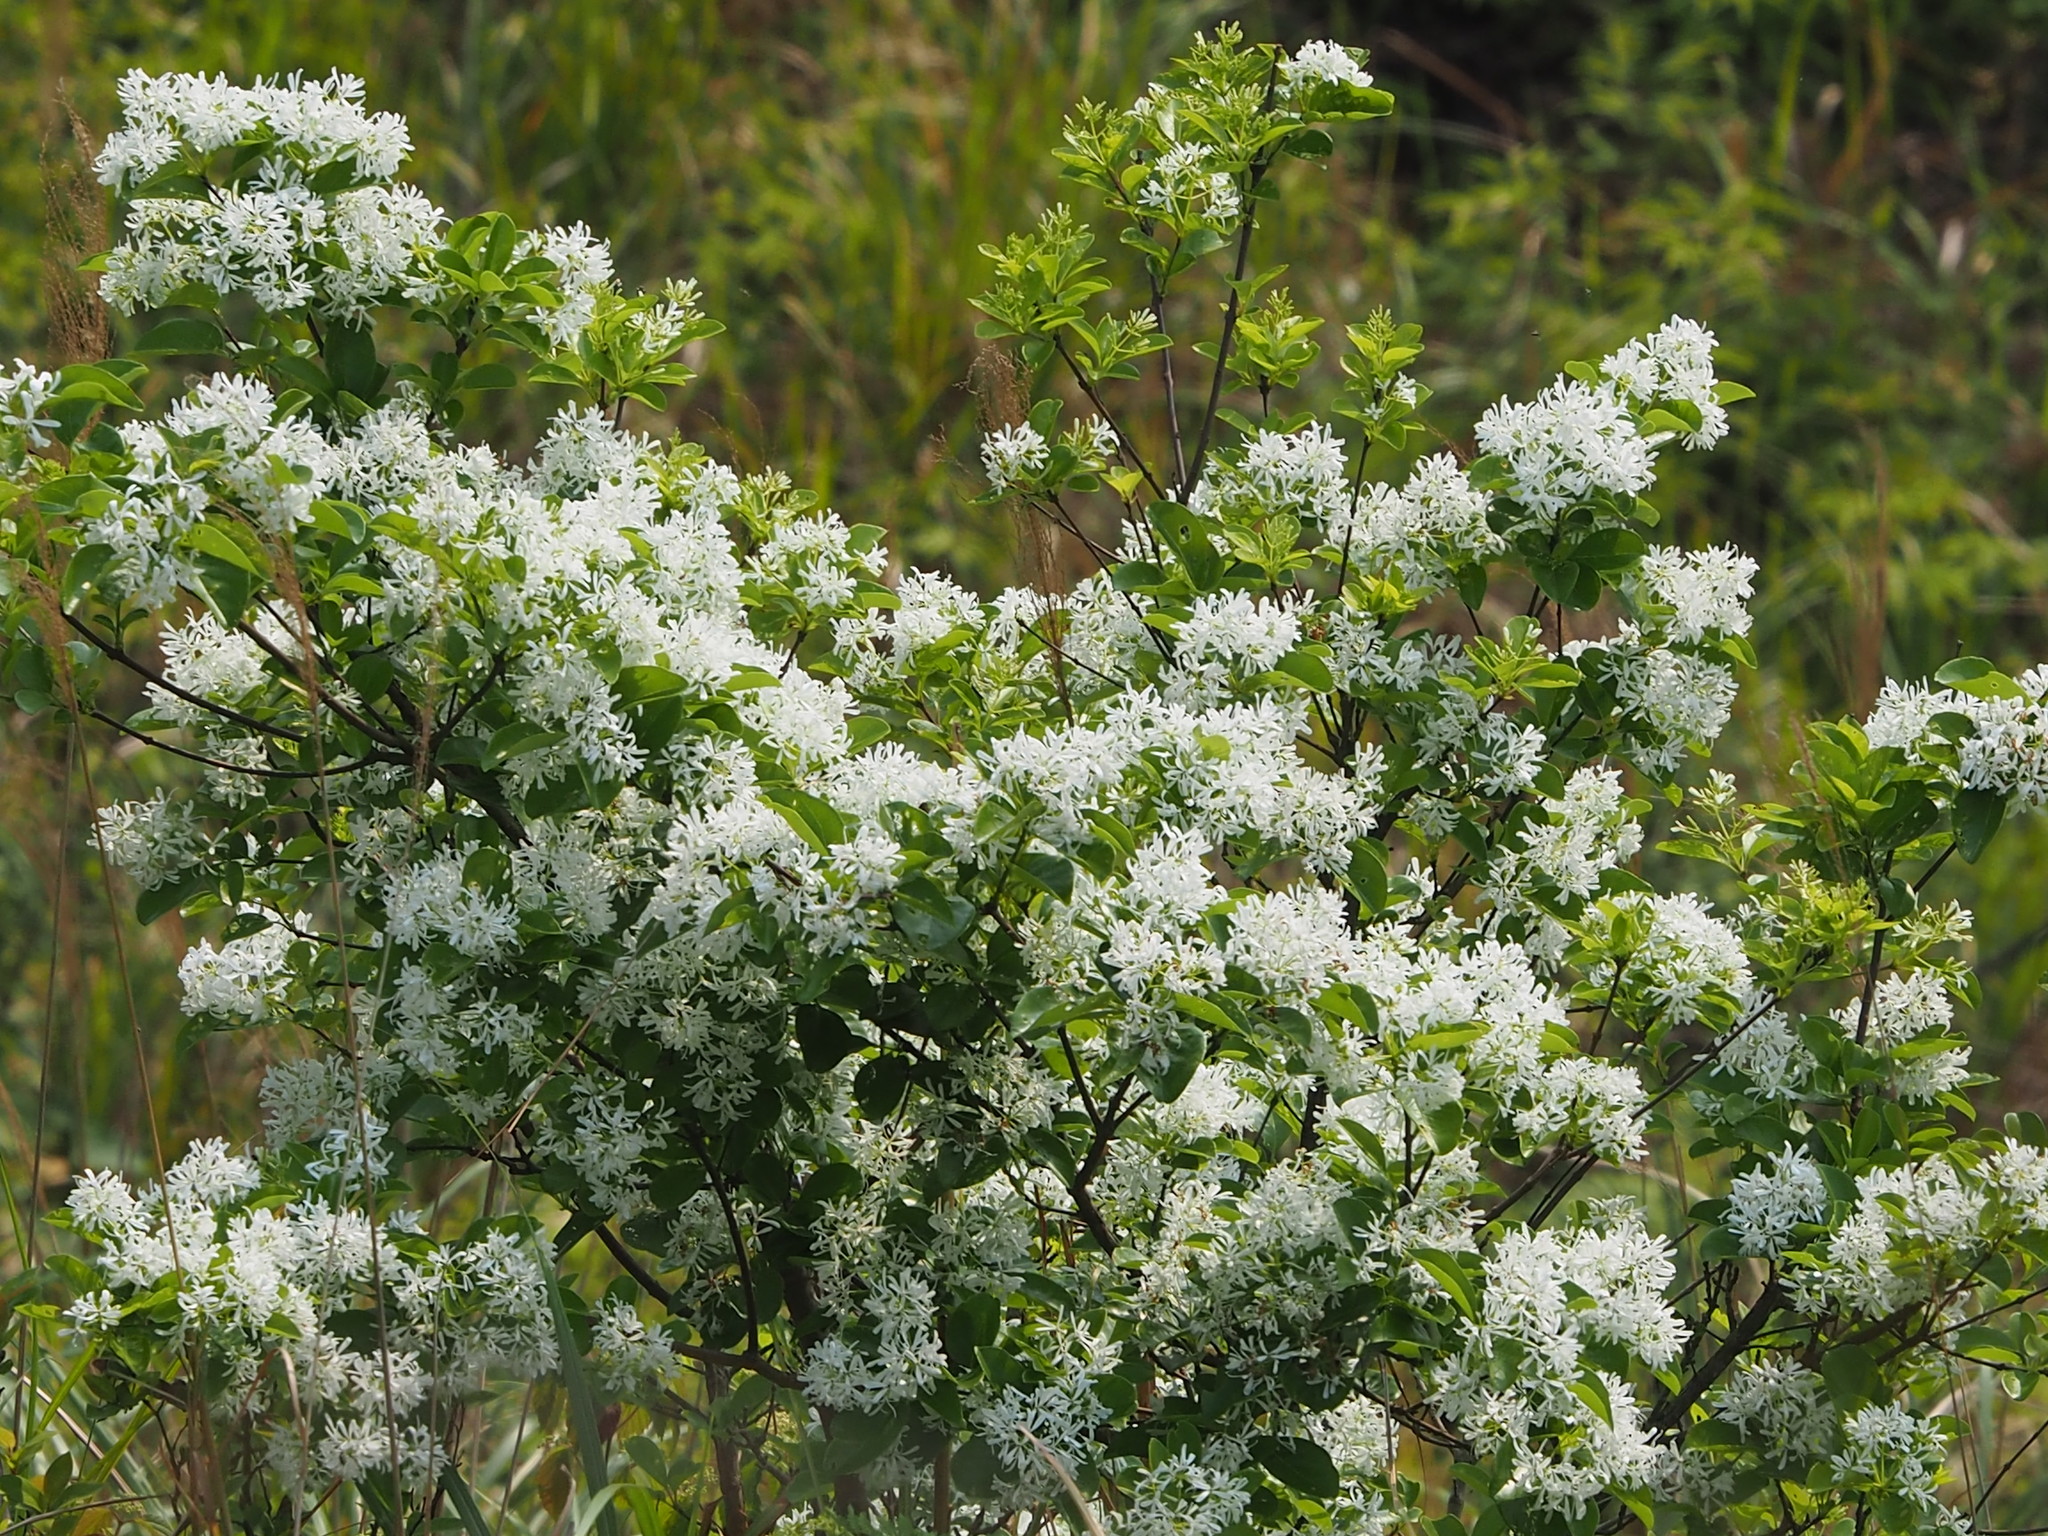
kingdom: Plantae
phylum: Tracheophyta
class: Magnoliopsida
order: Lamiales
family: Oleaceae
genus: Chionanthus
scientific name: Chionanthus retusus
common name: Chinese fringetree
